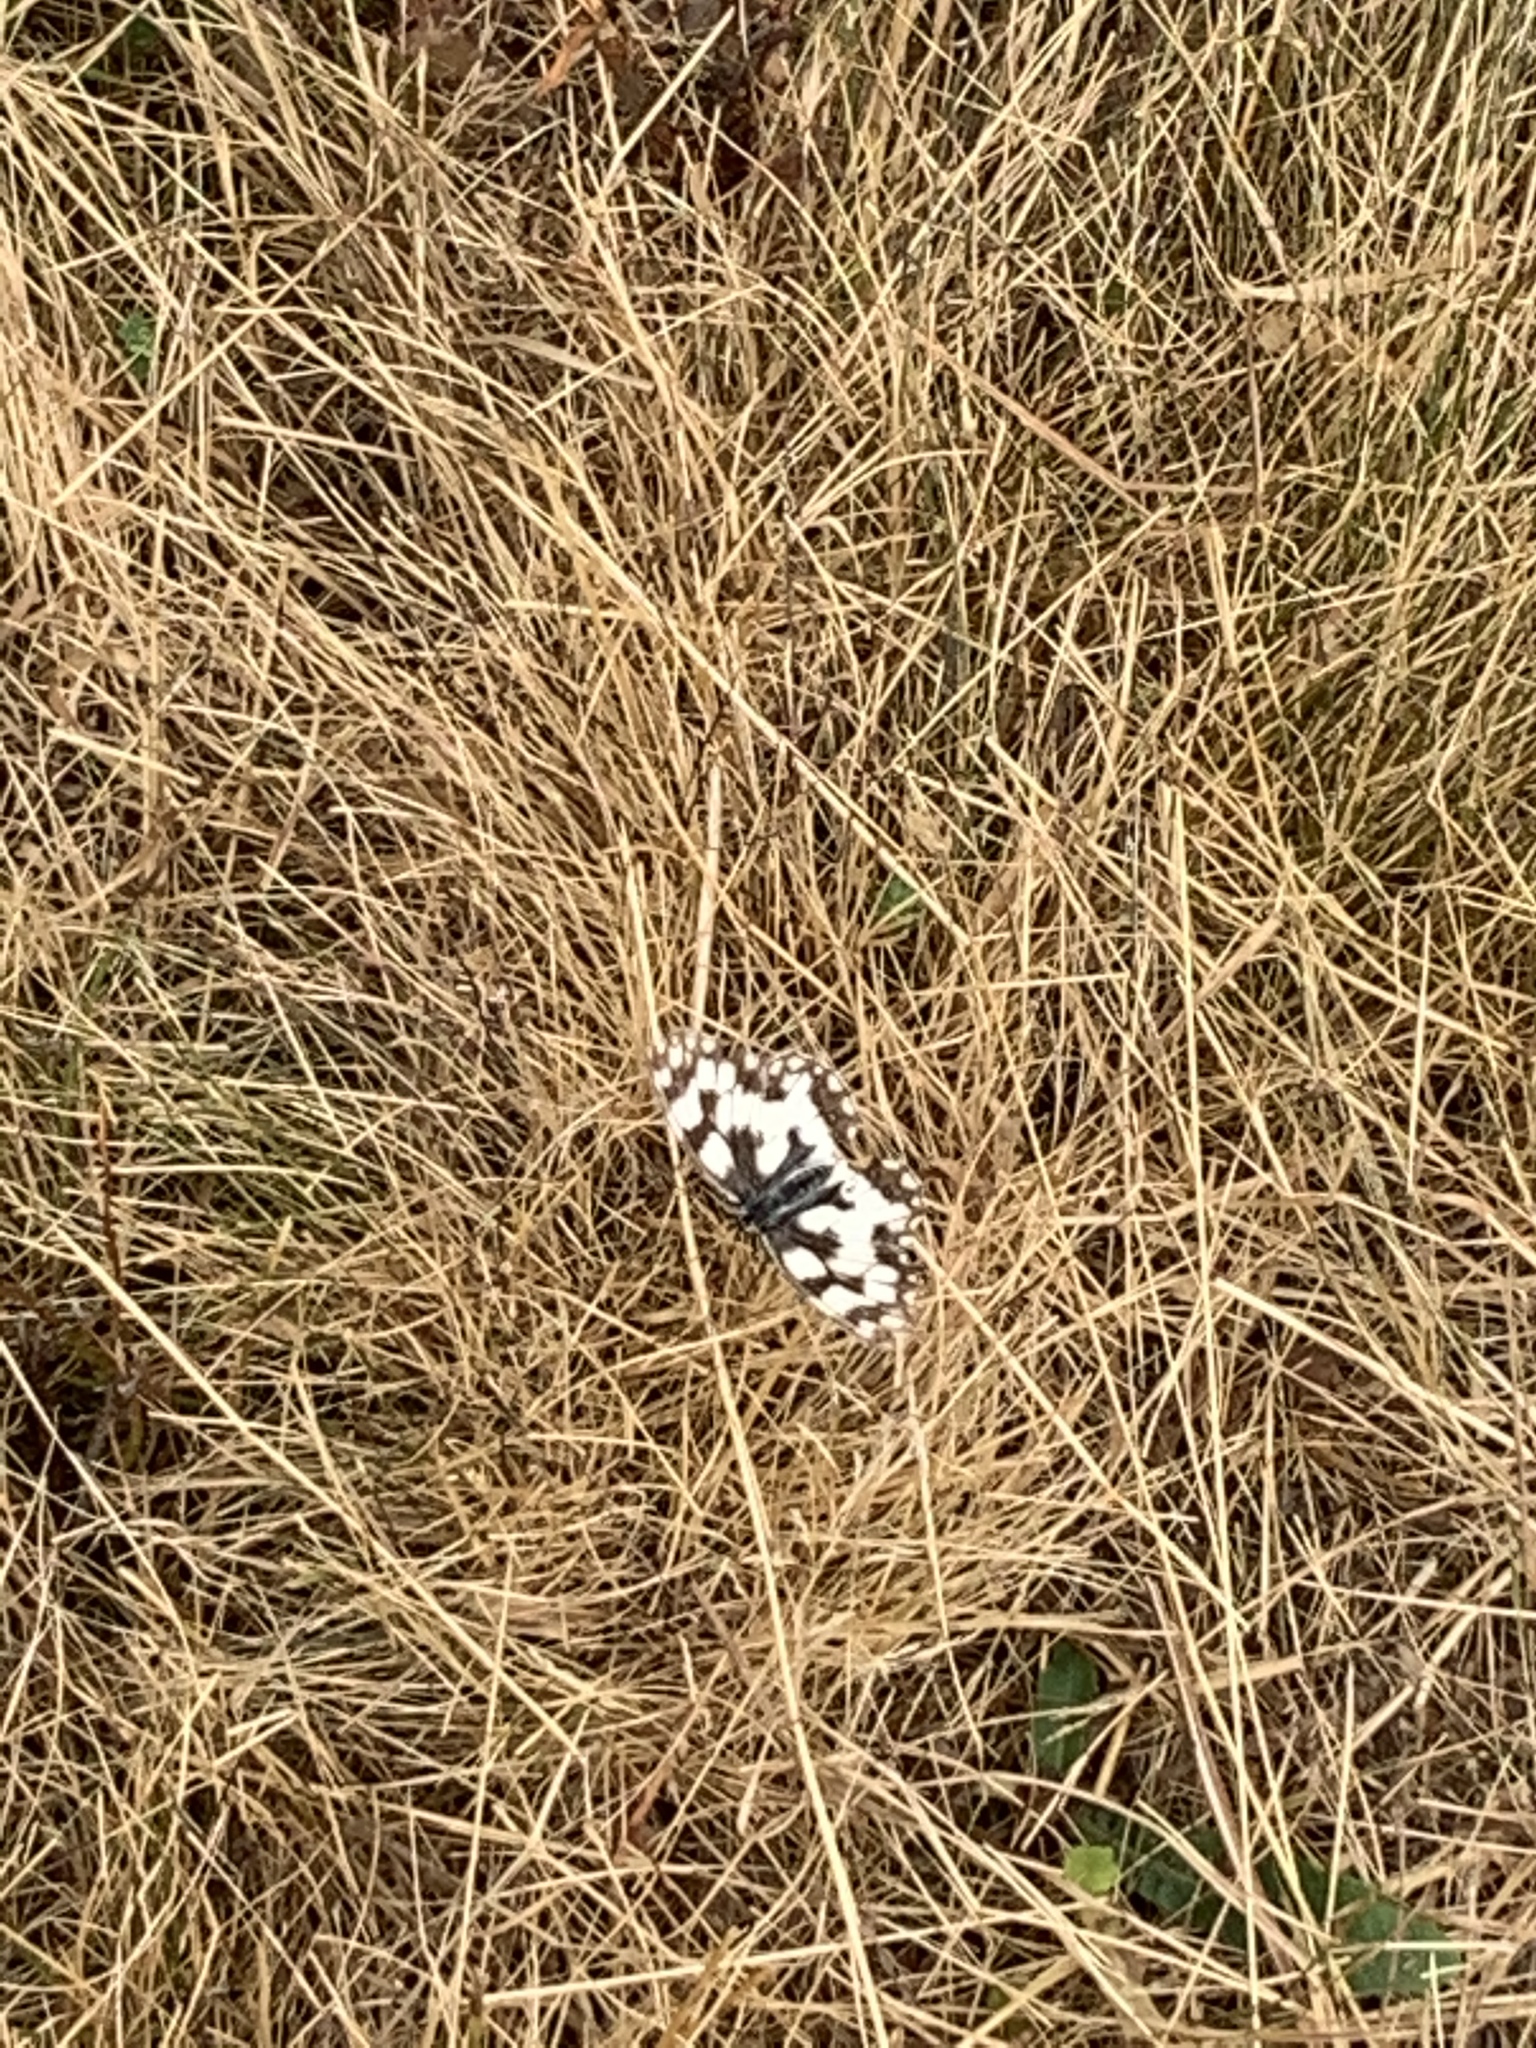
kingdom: Animalia
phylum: Arthropoda
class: Insecta
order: Lepidoptera
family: Nymphalidae
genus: Melanargia
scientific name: Melanargia galathea
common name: Marbled white
